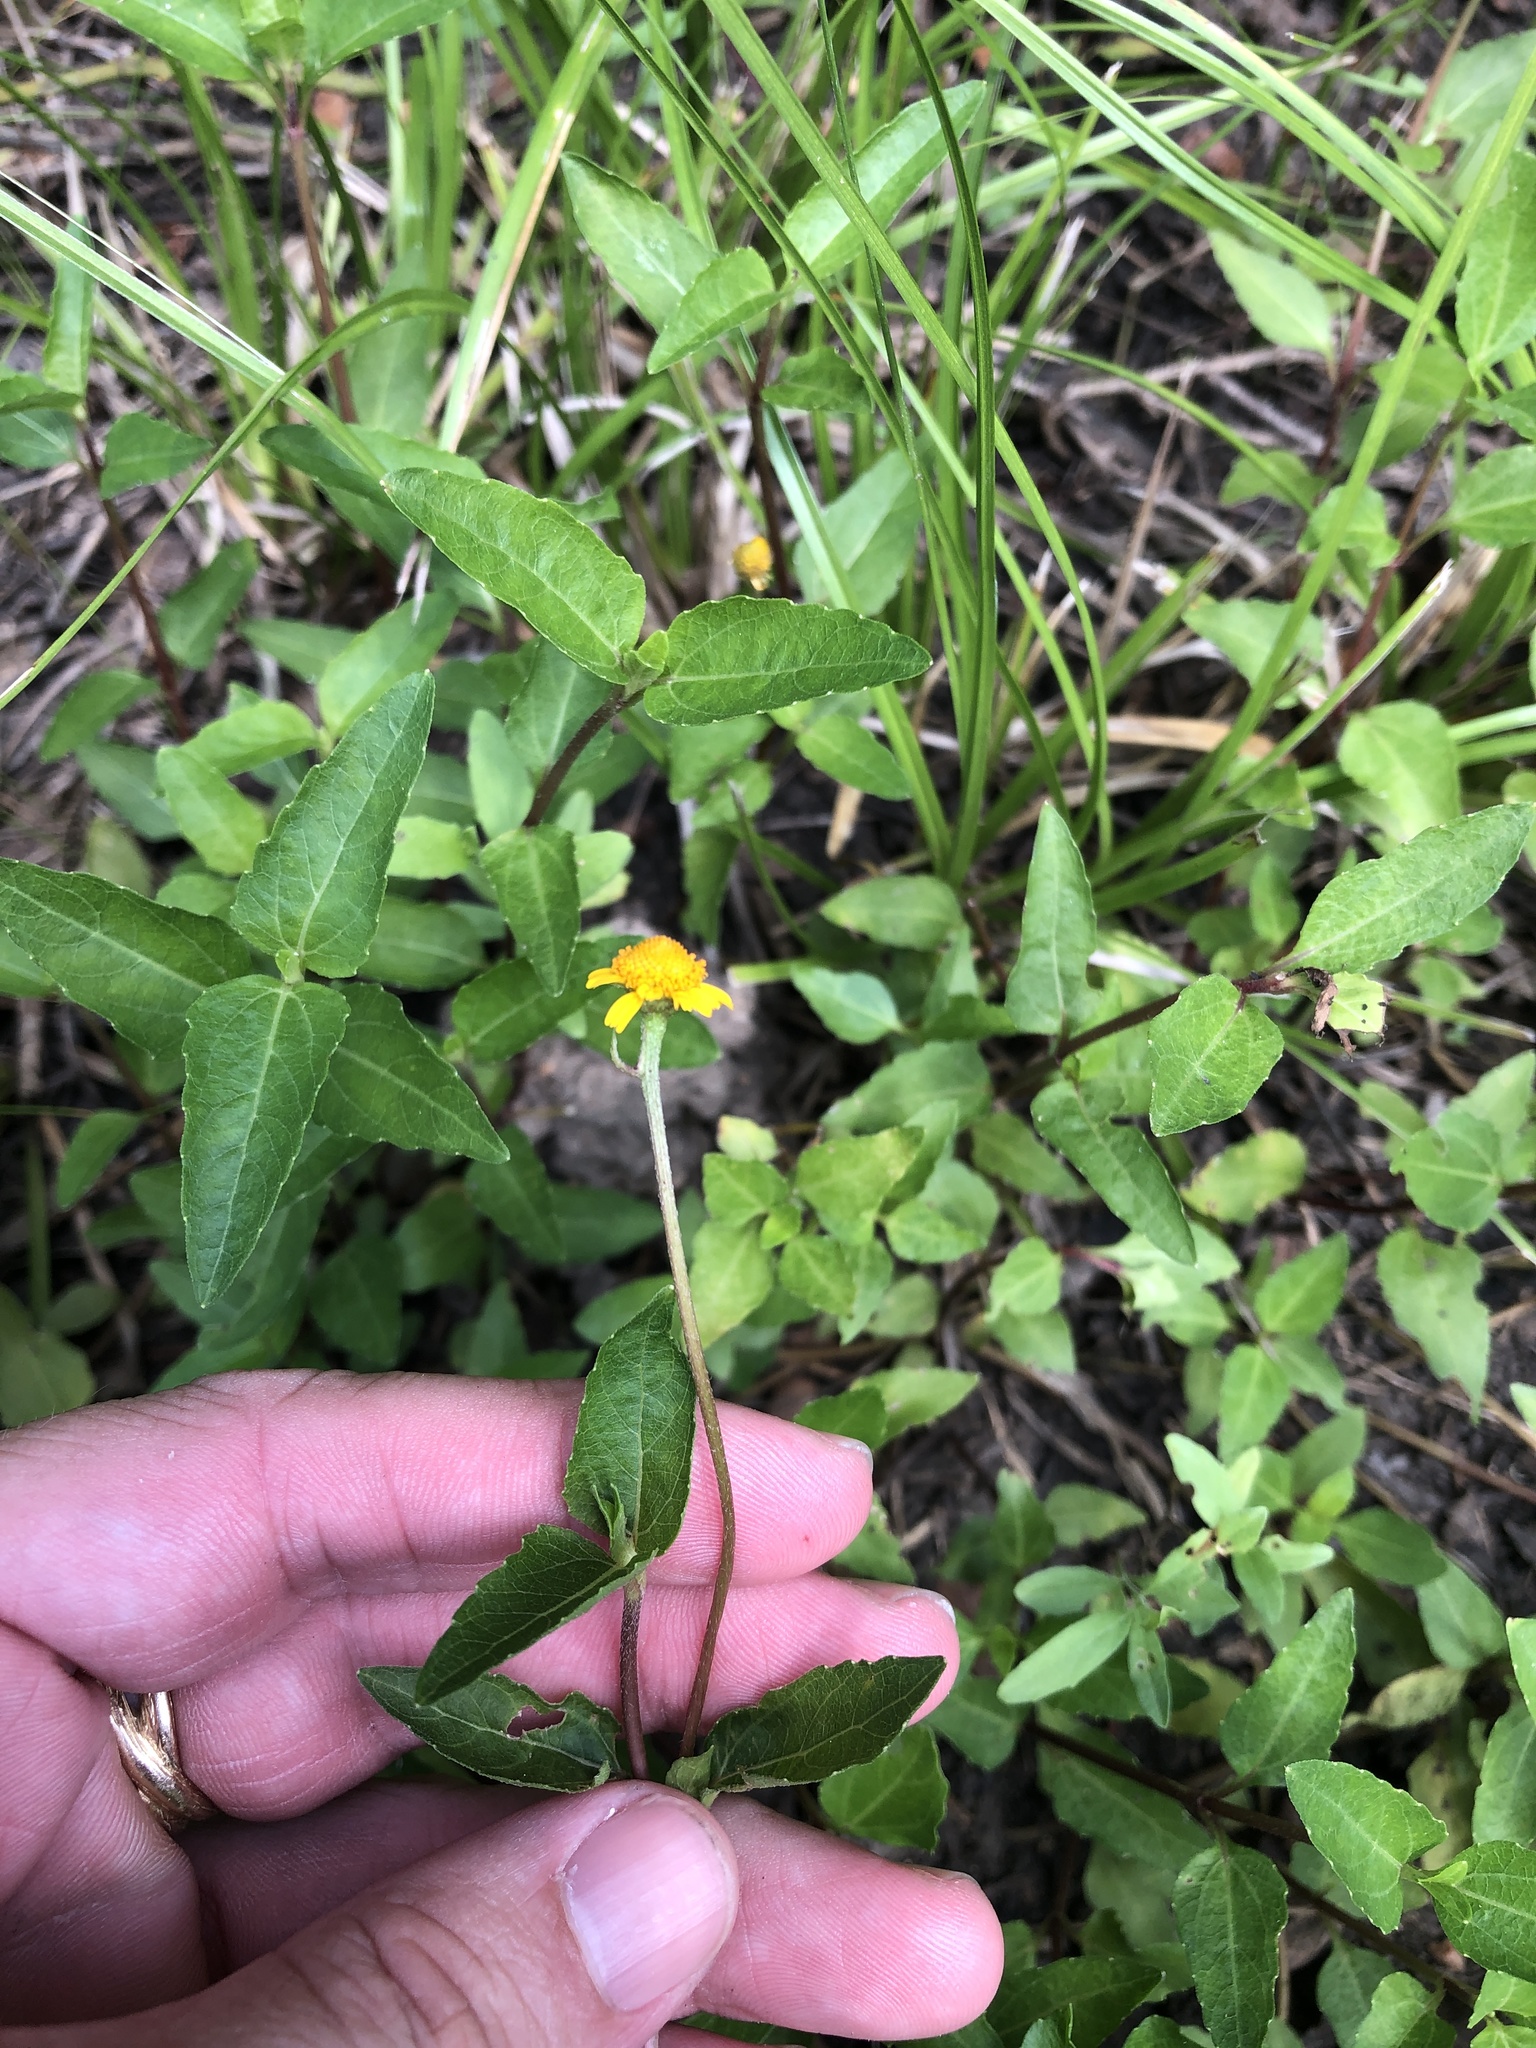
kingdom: Plantae
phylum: Tracheophyta
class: Magnoliopsida
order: Asterales
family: Asteraceae
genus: Acmella
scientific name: Acmella repens
